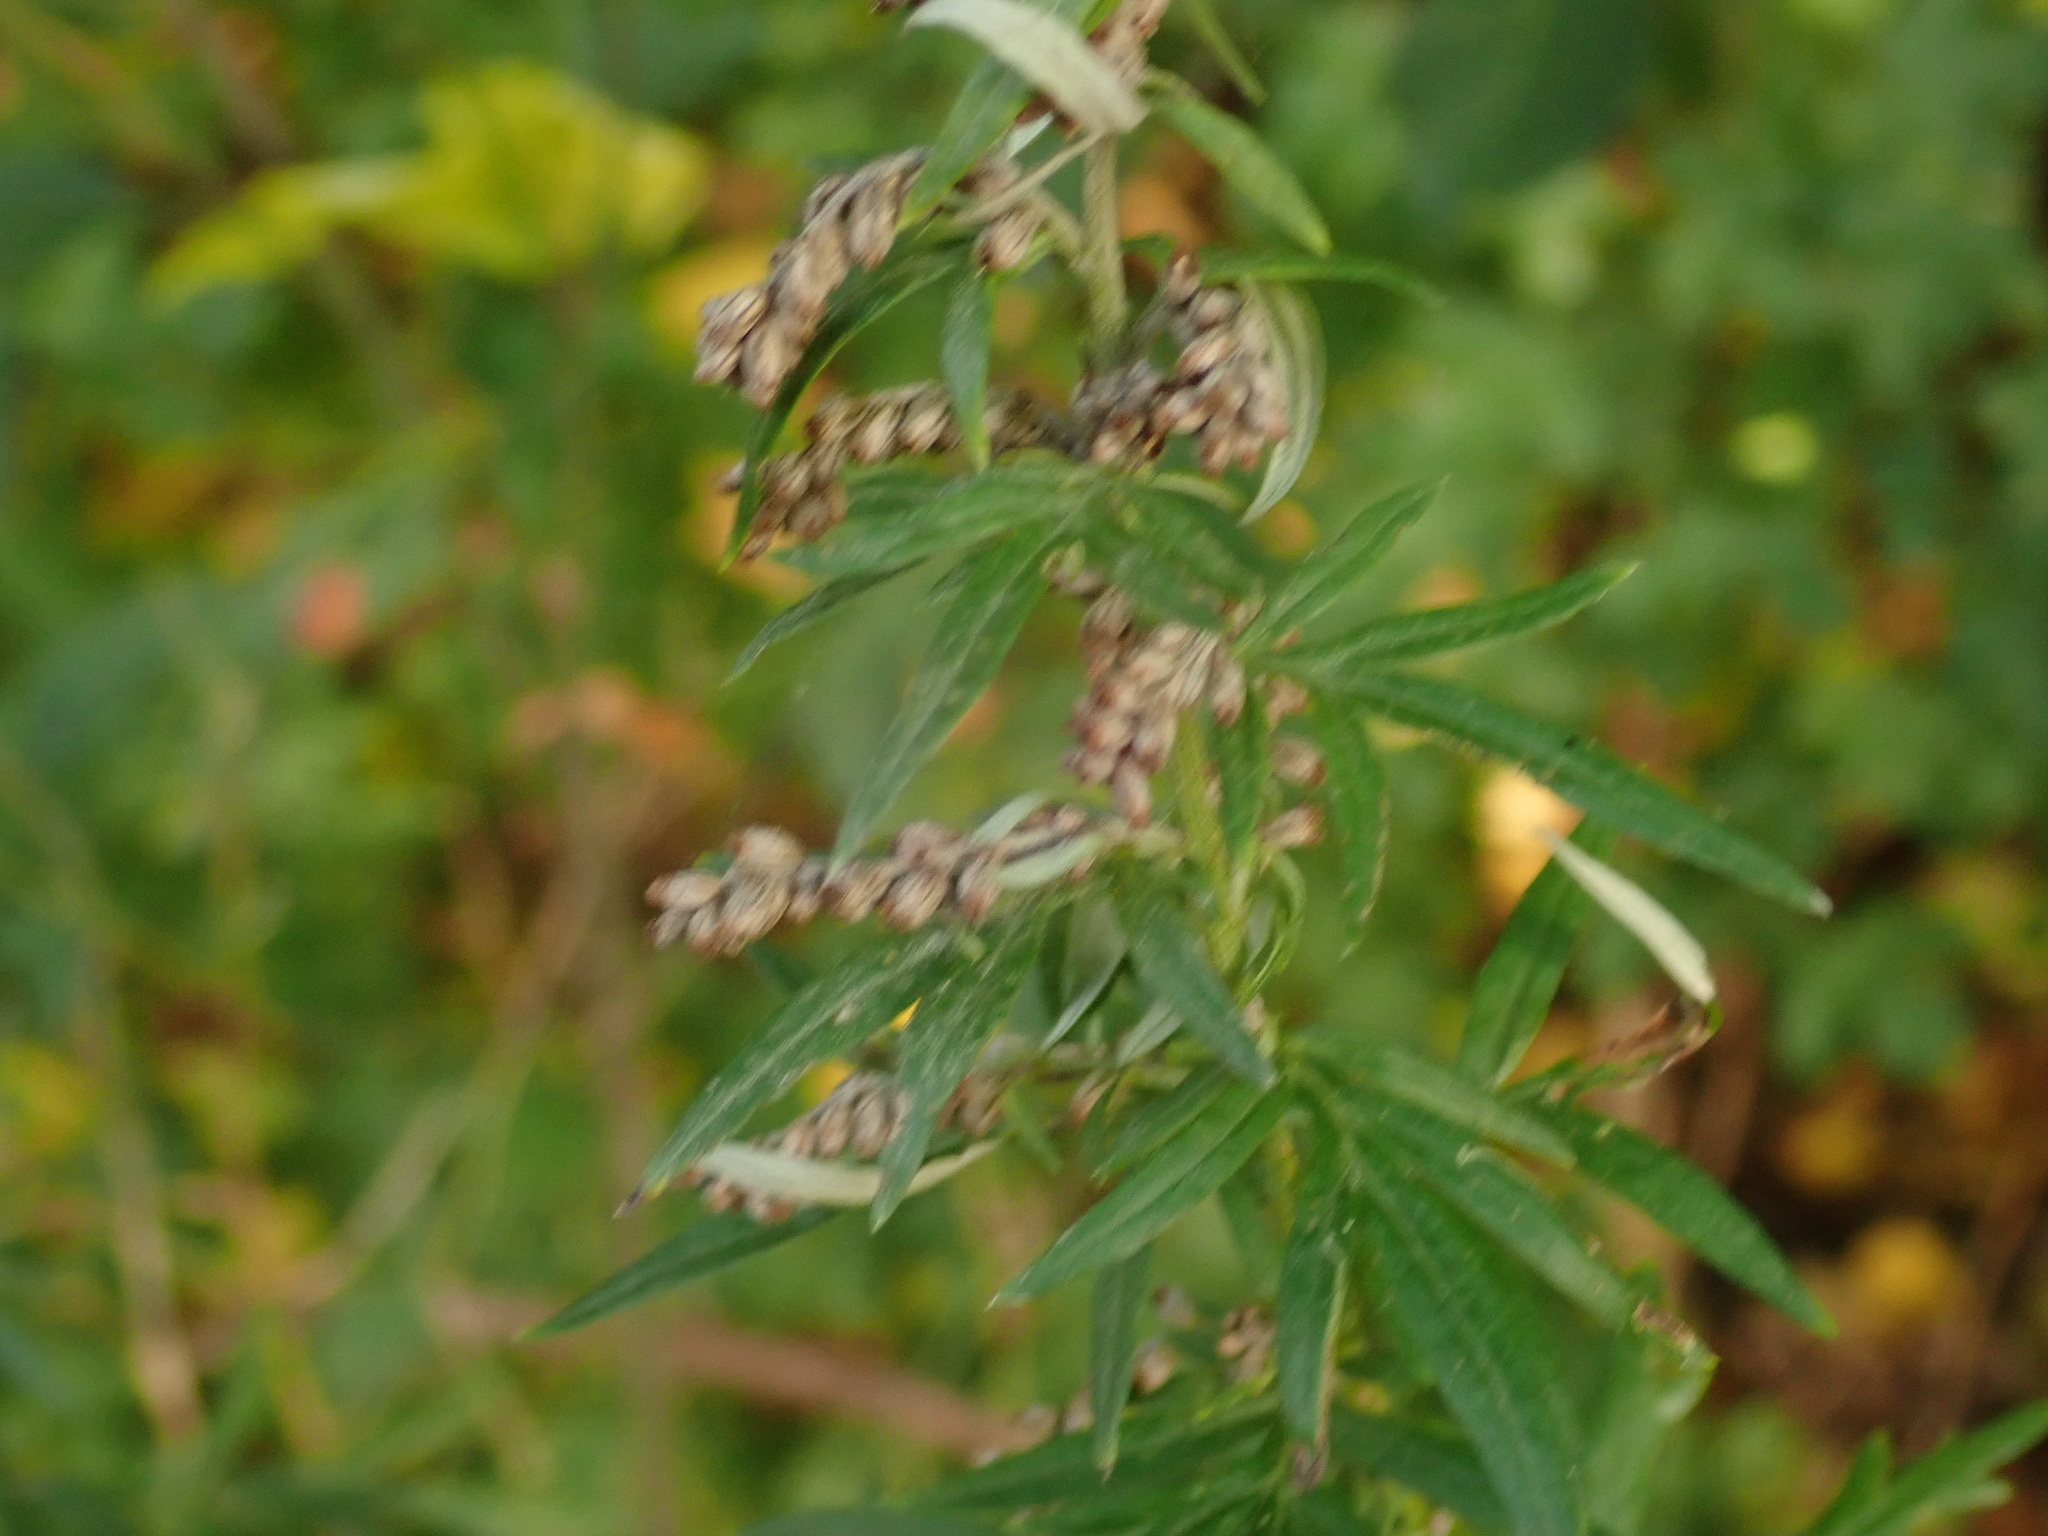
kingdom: Plantae
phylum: Tracheophyta
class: Magnoliopsida
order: Asterales
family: Asteraceae
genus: Artemisia
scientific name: Artemisia vulgaris
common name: Mugwort
